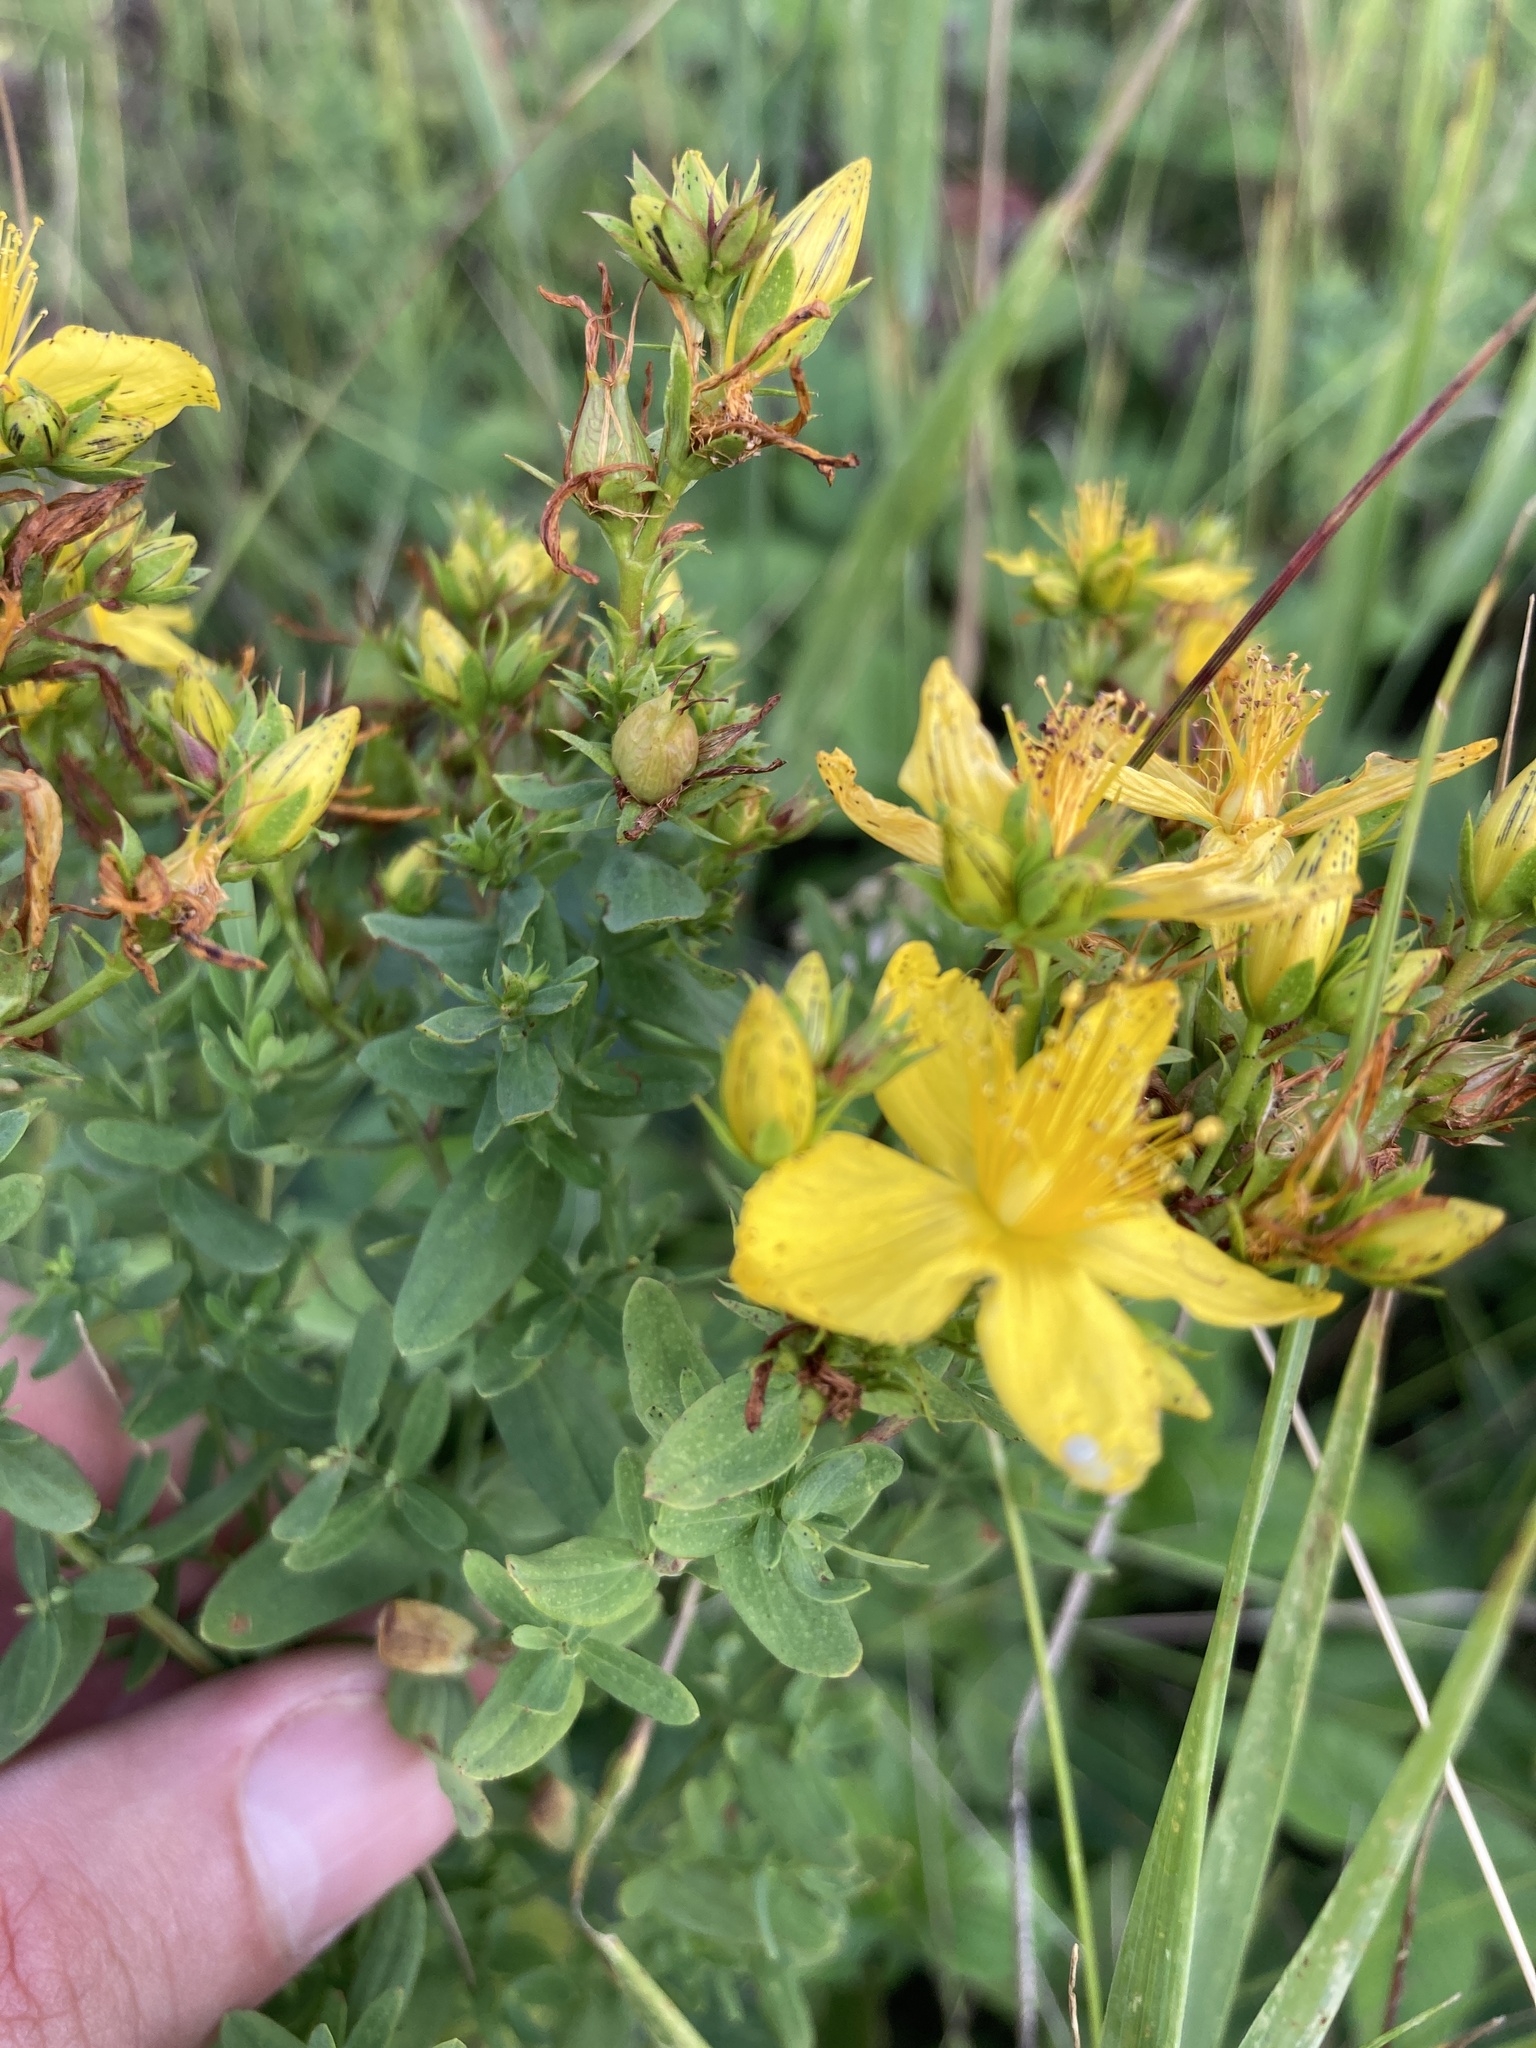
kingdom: Plantae
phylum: Tracheophyta
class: Magnoliopsida
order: Malpighiales
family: Hypericaceae
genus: Hypericum
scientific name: Hypericum perforatum
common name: Common st. johnswort
